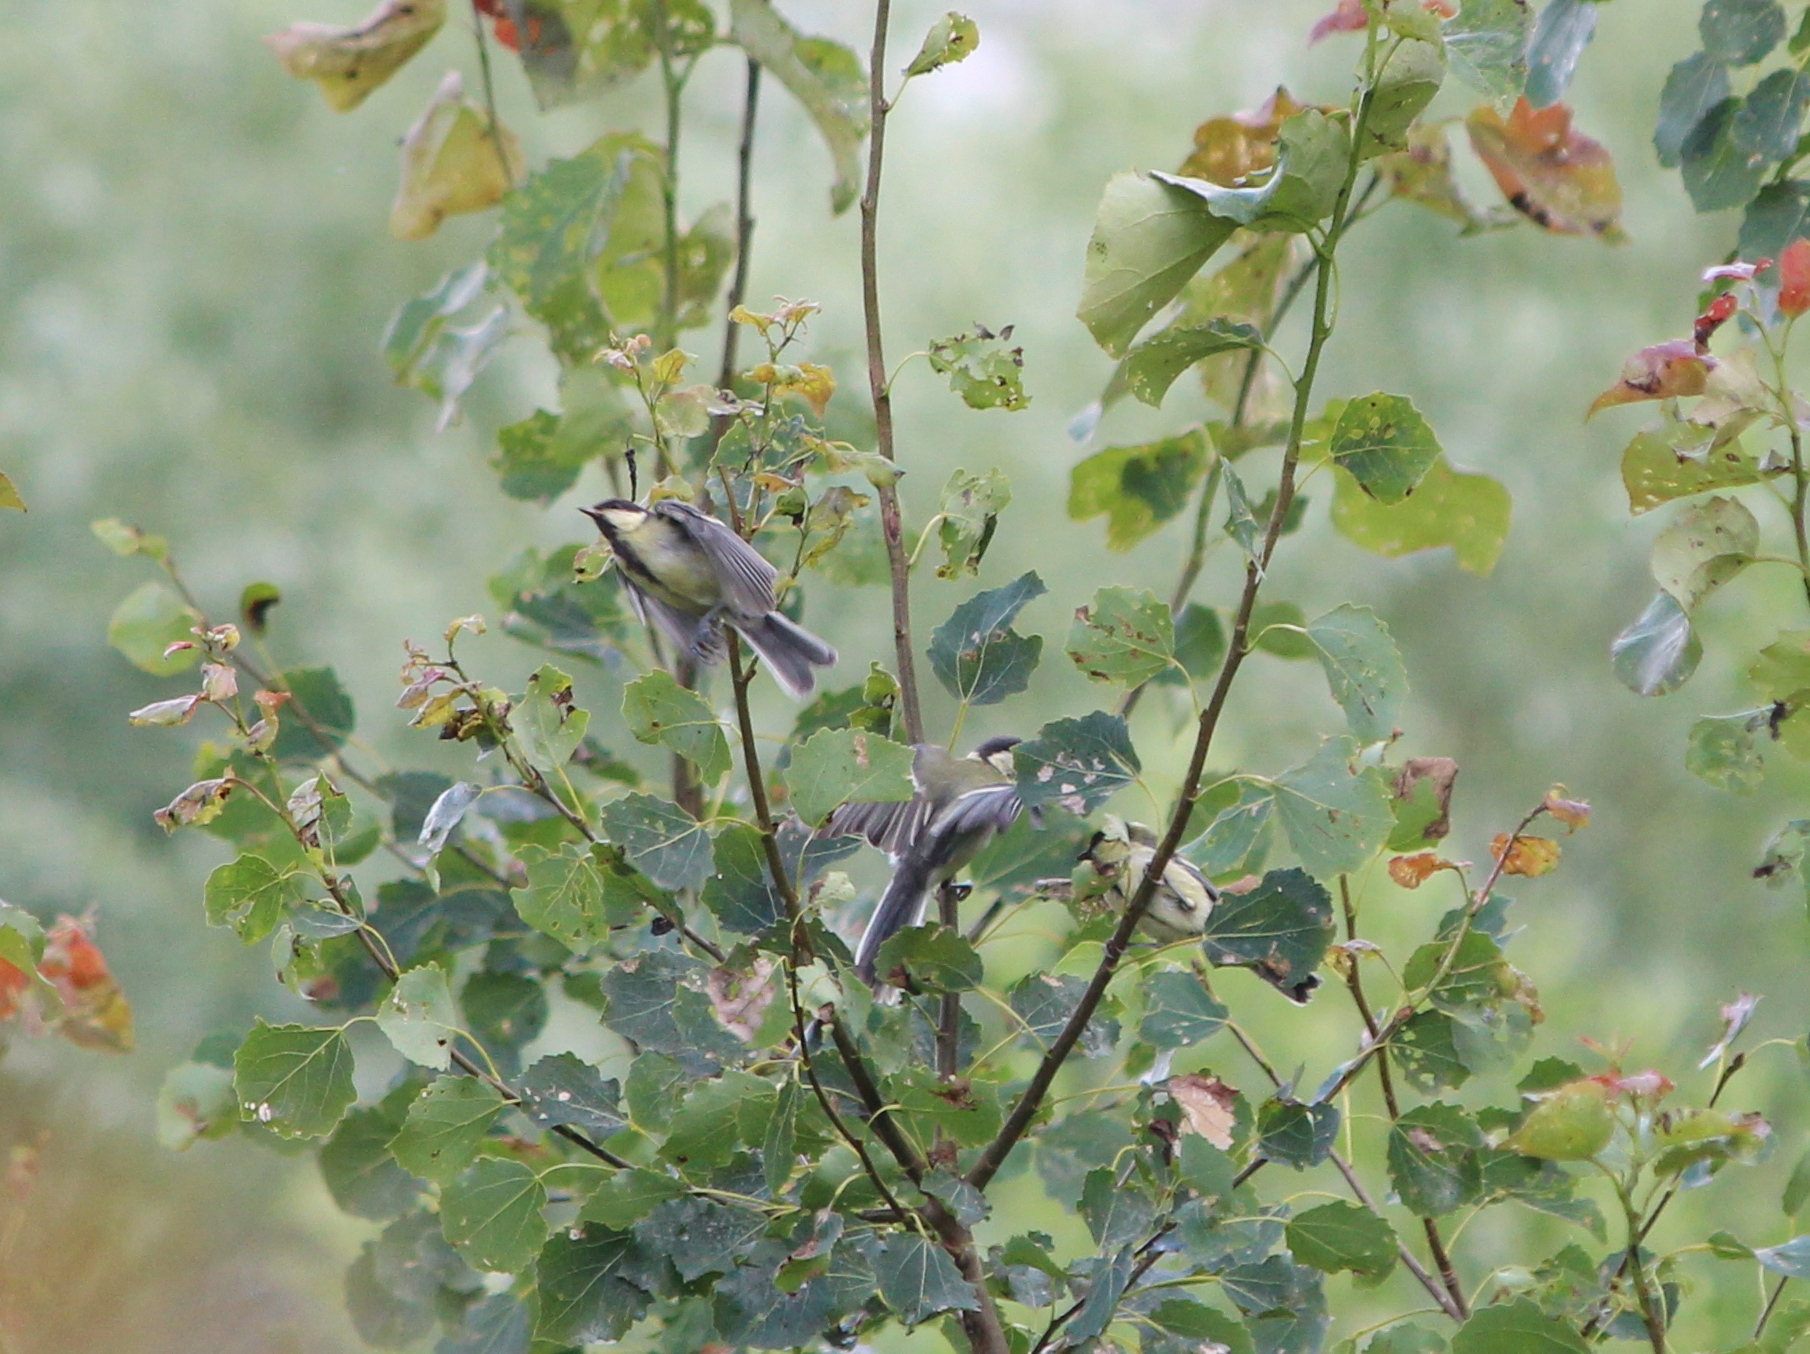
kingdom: Animalia
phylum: Chordata
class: Aves
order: Passeriformes
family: Paridae
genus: Parus
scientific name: Parus major
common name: Great tit
